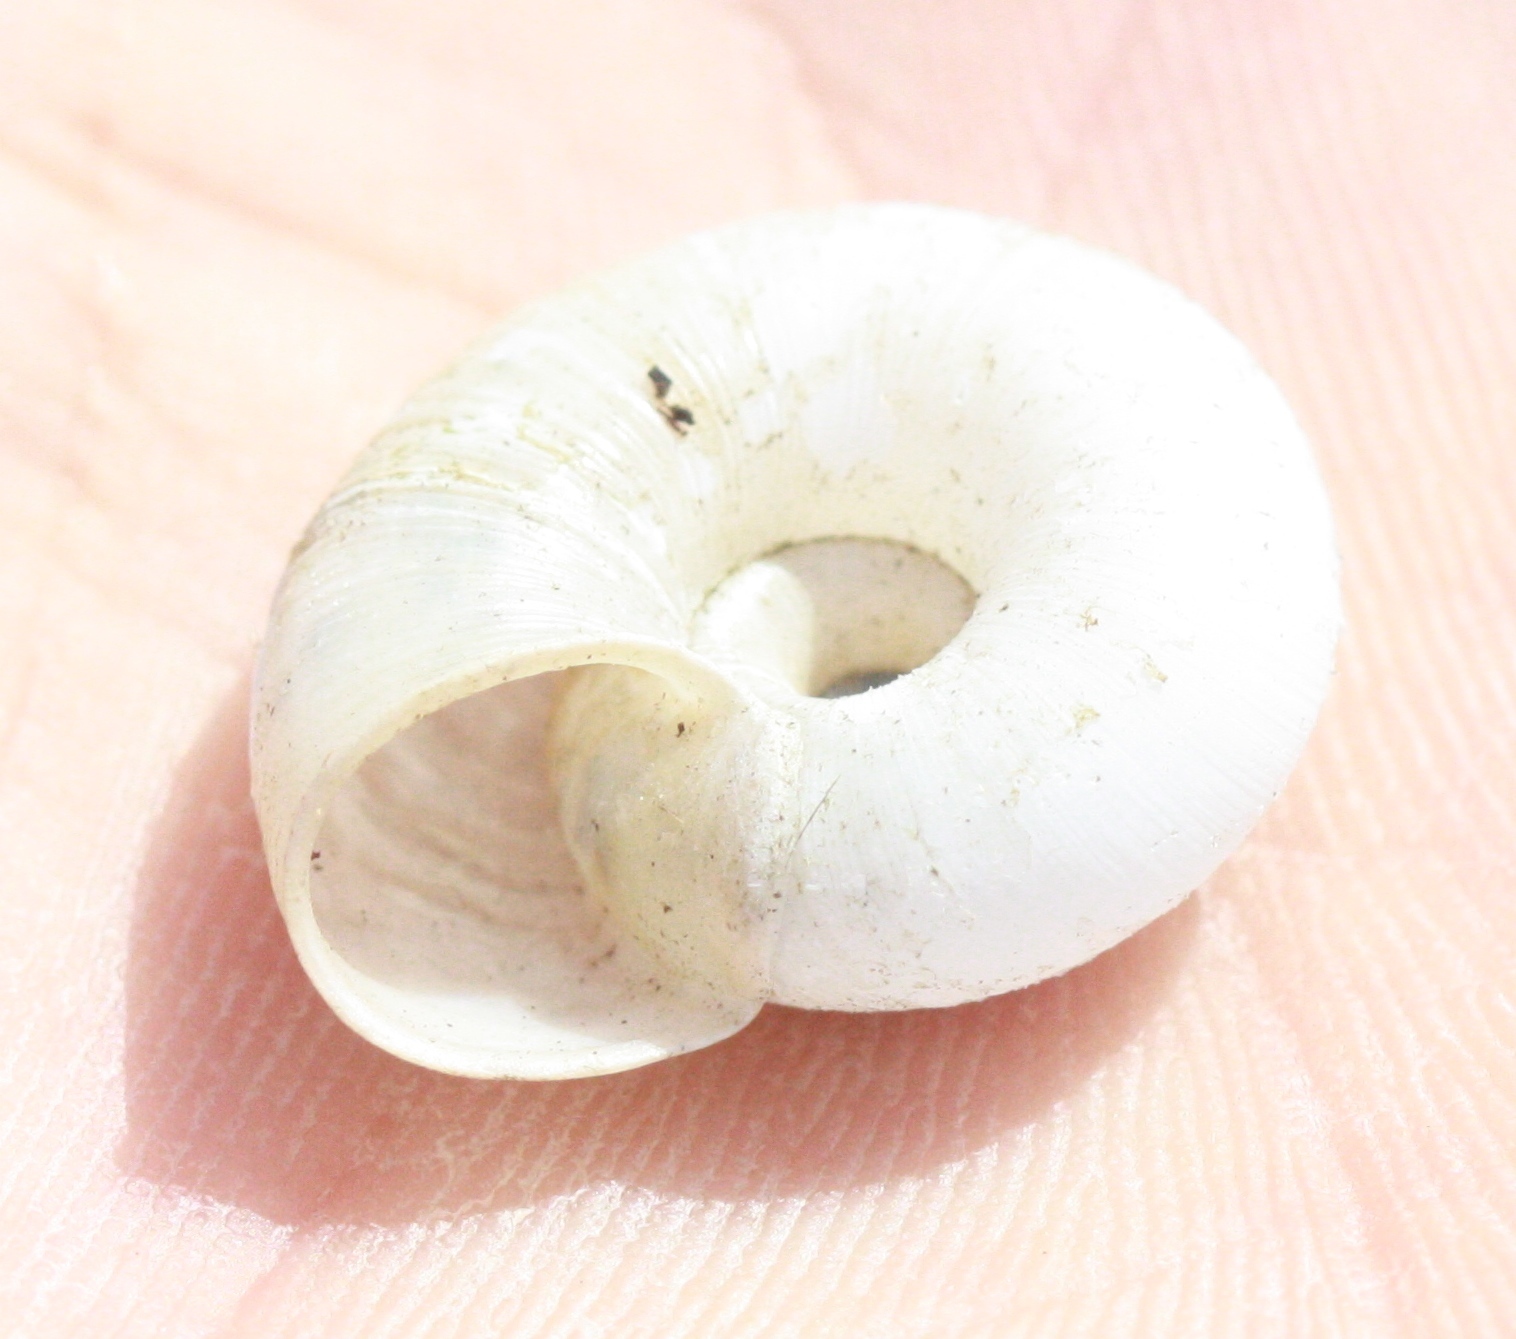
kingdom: Animalia
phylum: Mollusca
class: Gastropoda
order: Stylommatophora
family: Haplotrematidae
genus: Haplotrema
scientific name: Haplotrema minimum
